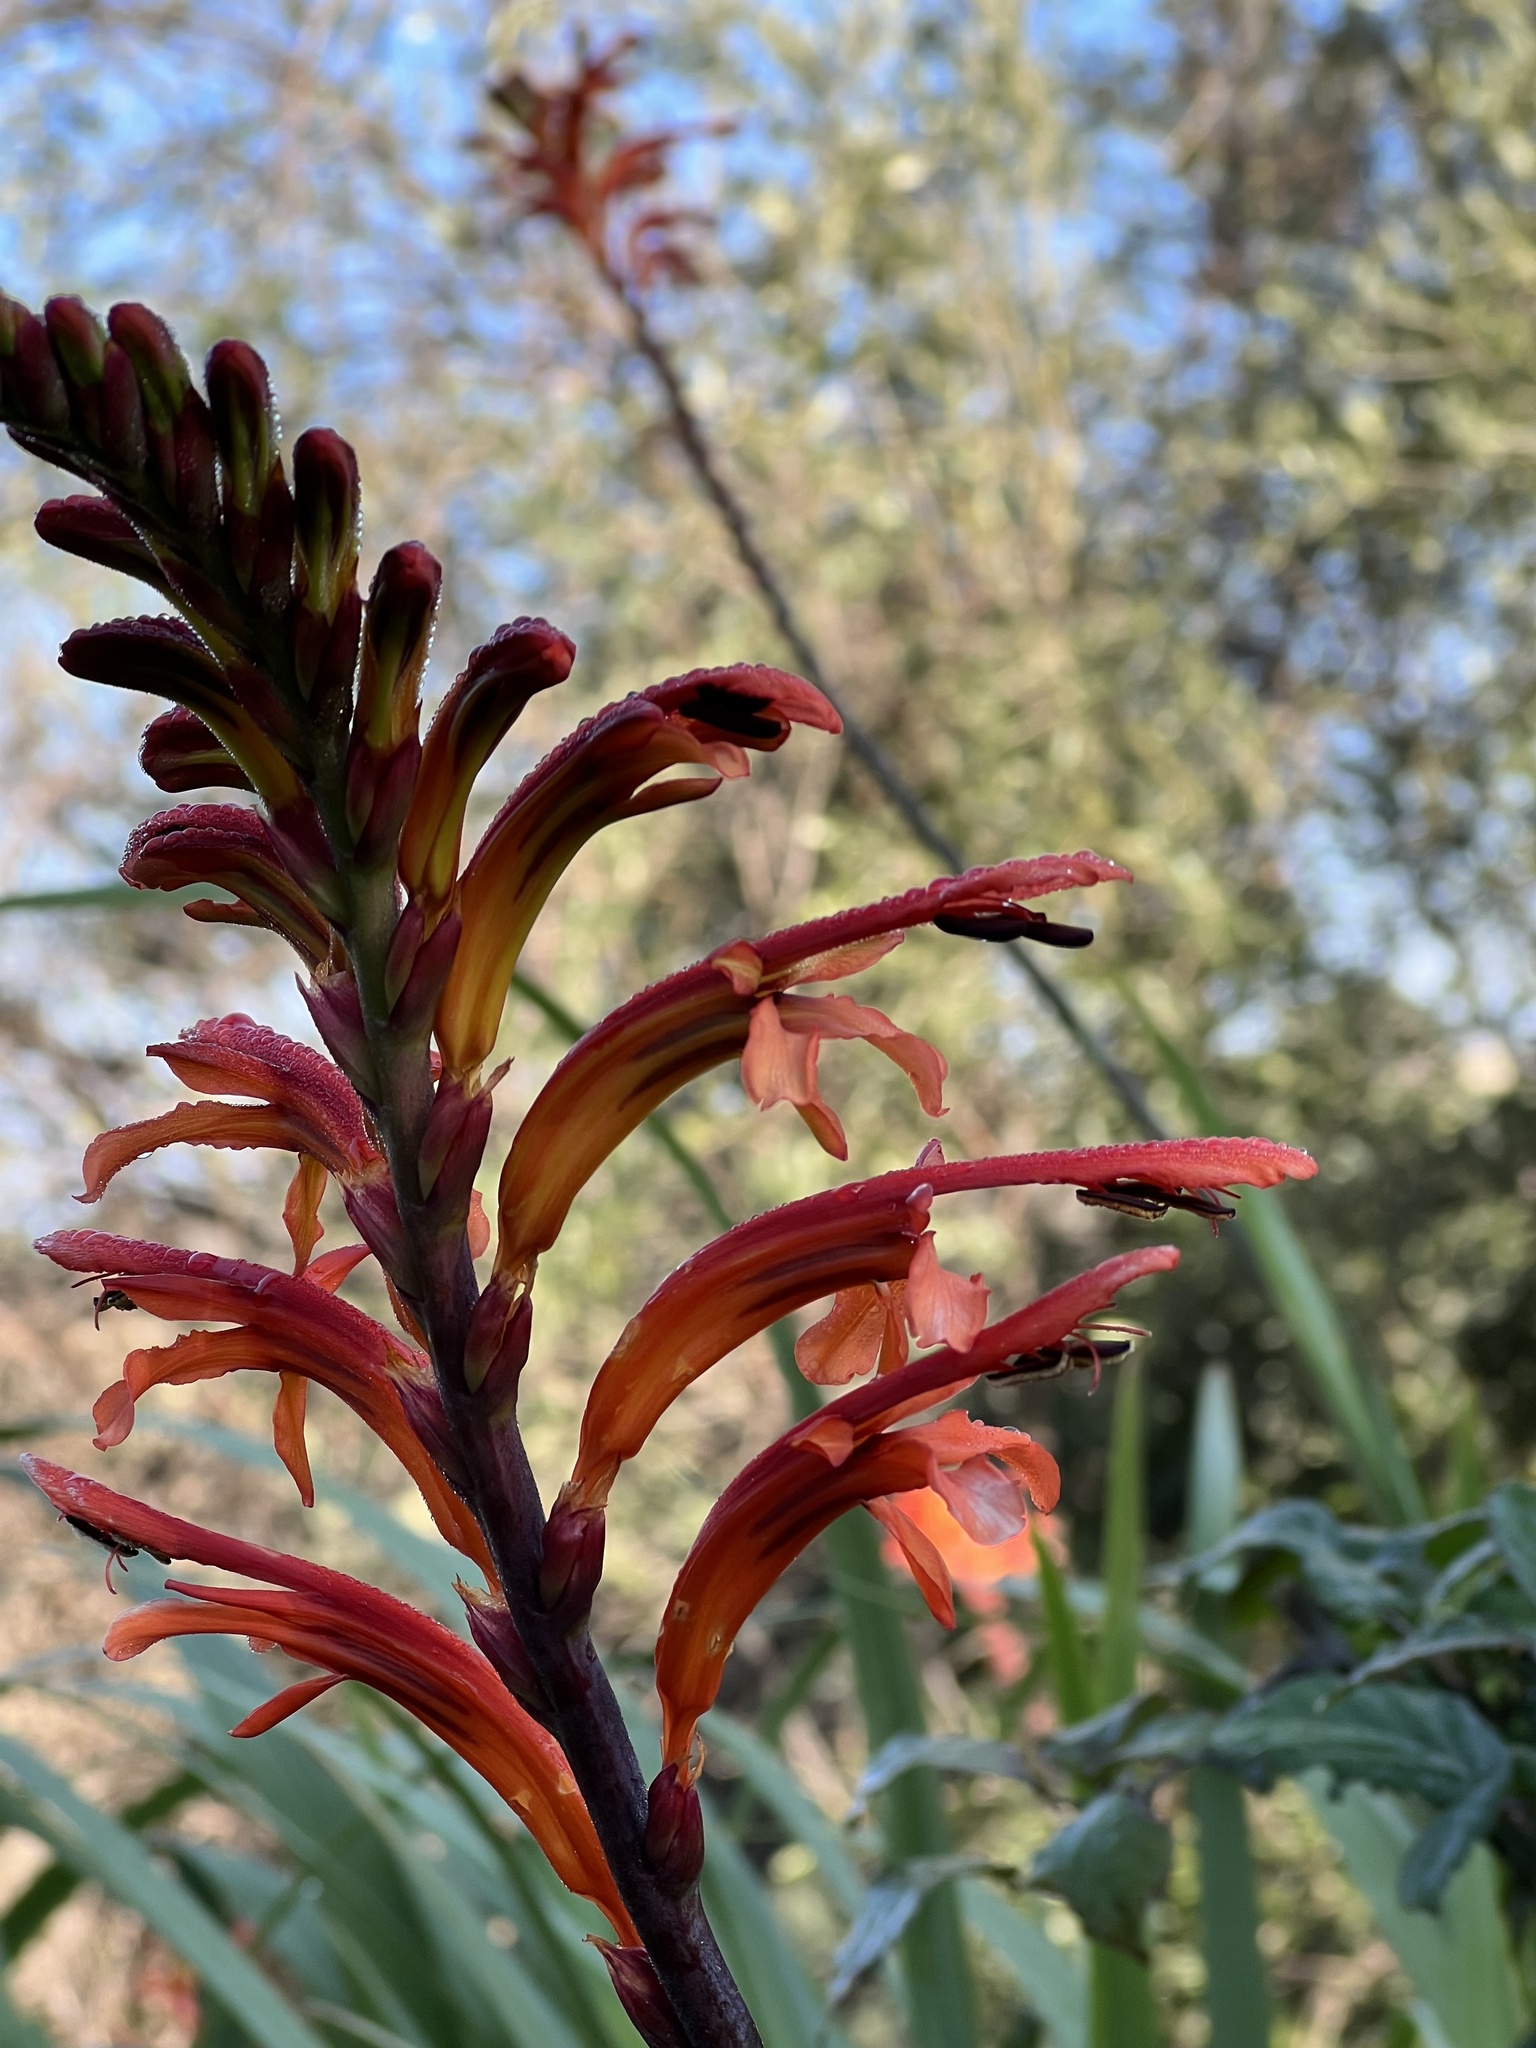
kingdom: Plantae
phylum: Tracheophyta
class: Liliopsida
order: Asparagales
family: Iridaceae
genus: Chasmanthe
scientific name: Chasmanthe floribunda
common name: African cornflag
